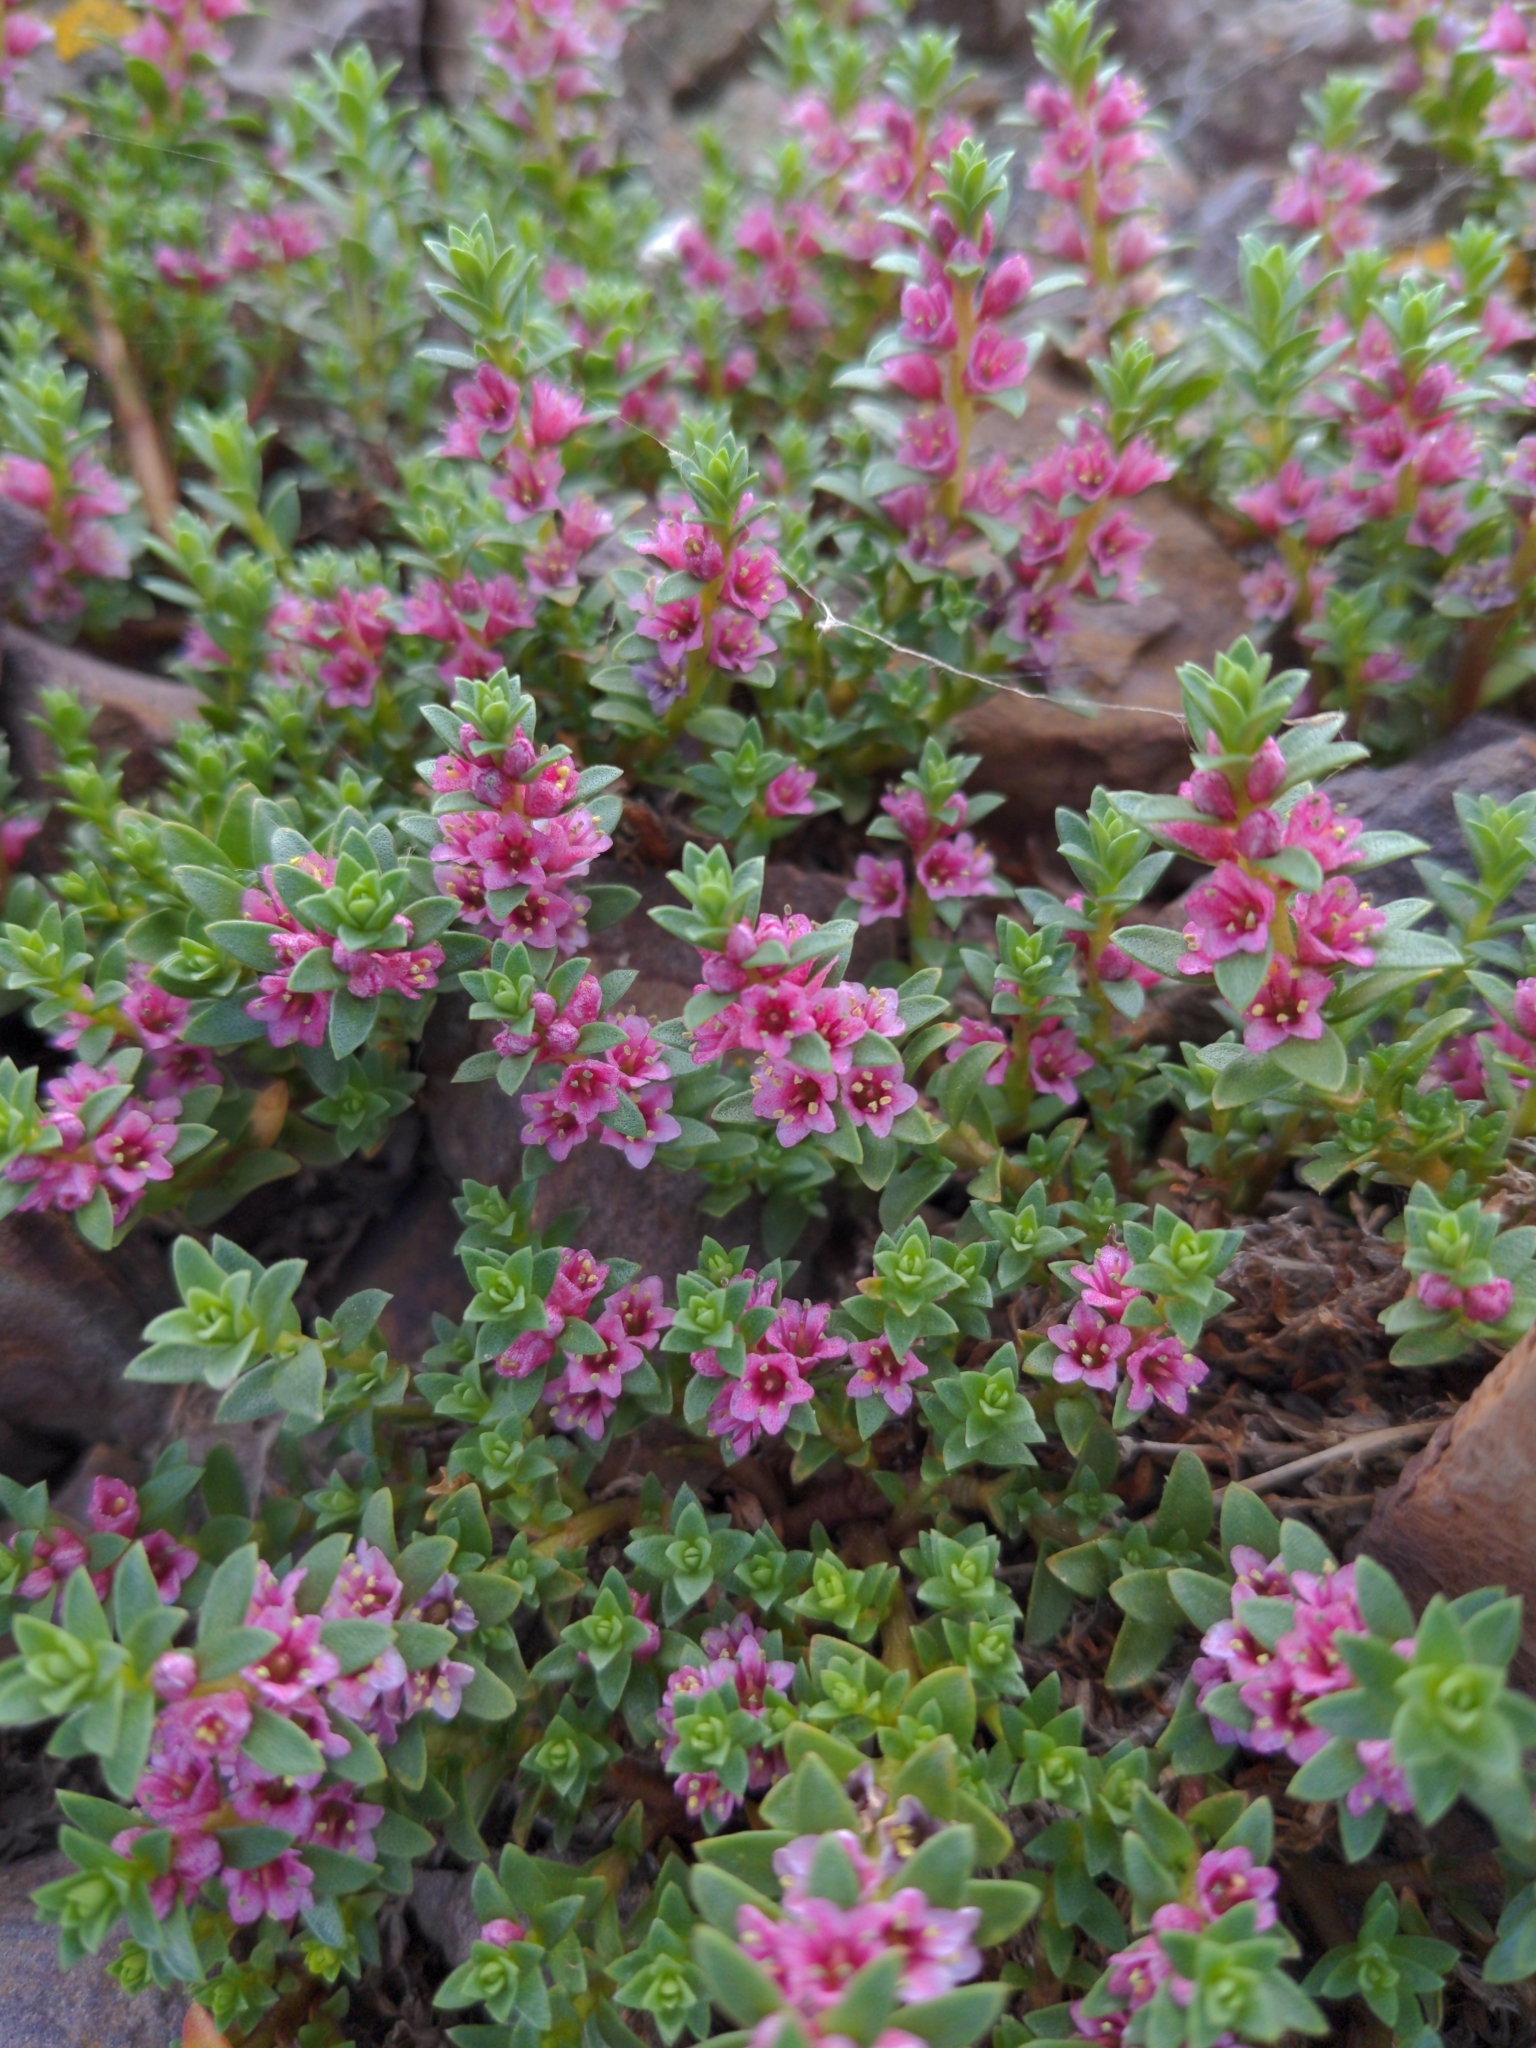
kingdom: Plantae
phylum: Tracheophyta
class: Magnoliopsida
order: Ericales
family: Primulaceae
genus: Lysimachia
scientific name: Lysimachia maritima
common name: Sea milkwort
